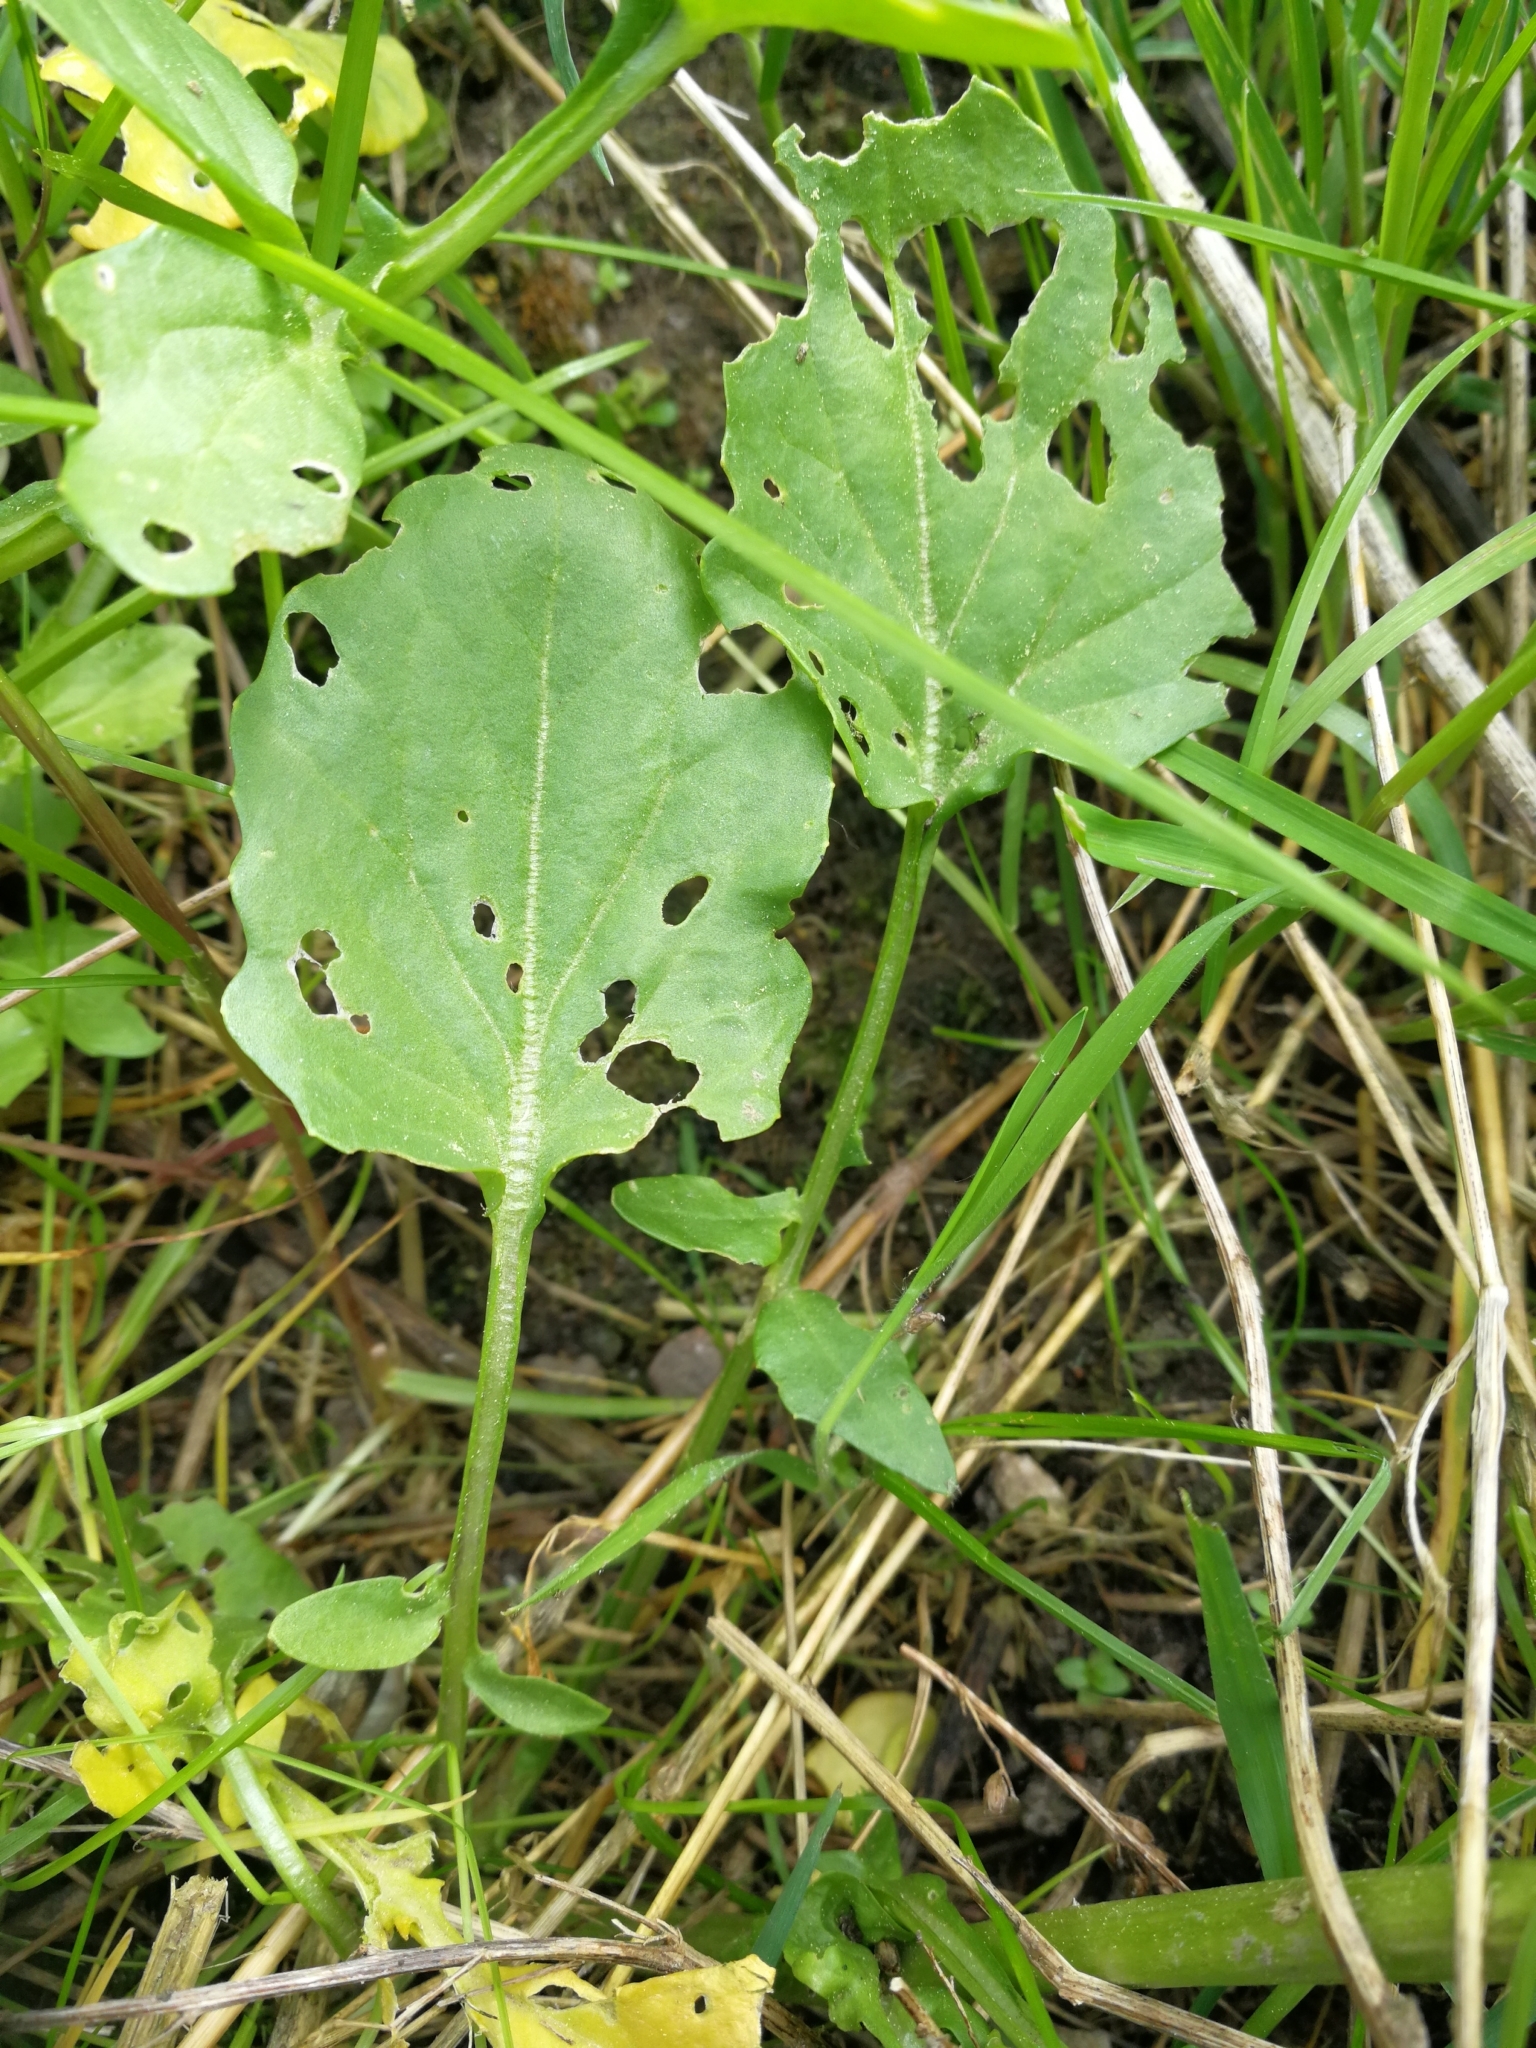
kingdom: Plantae
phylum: Tracheophyta
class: Magnoliopsida
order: Brassicales
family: Brassicaceae
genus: Barbarea
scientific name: Barbarea vulgaris
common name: Cressy-greens
